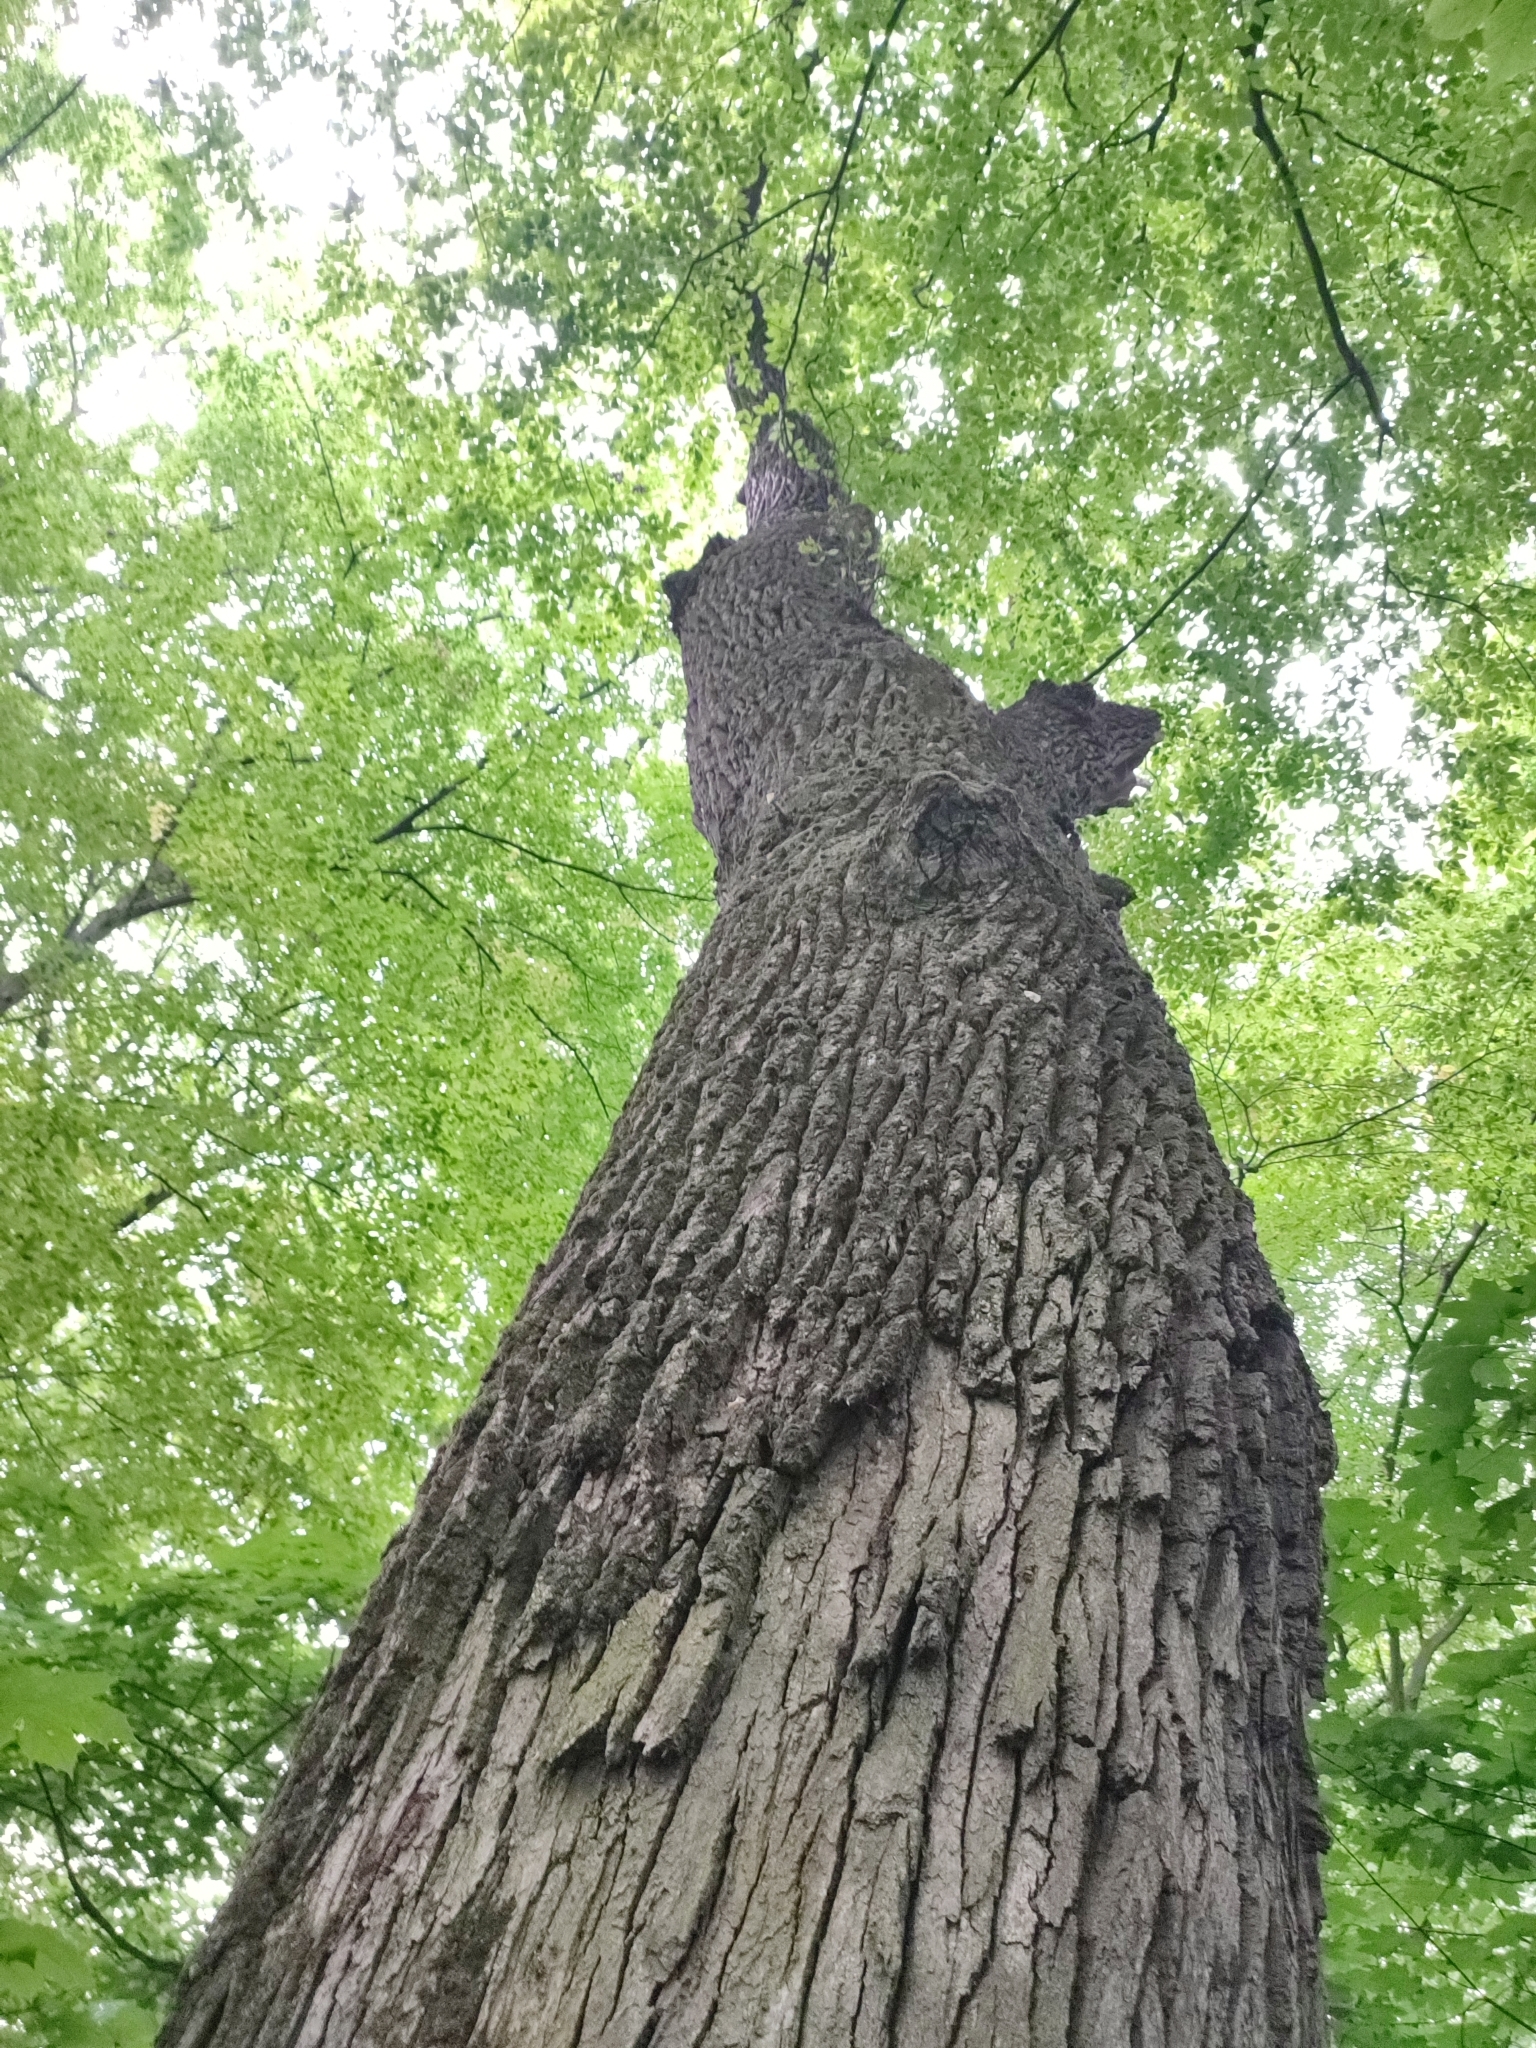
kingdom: Plantae
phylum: Tracheophyta
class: Magnoliopsida
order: Fagales
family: Fagaceae
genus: Quercus
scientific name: Quercus robur
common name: Pedunculate oak
